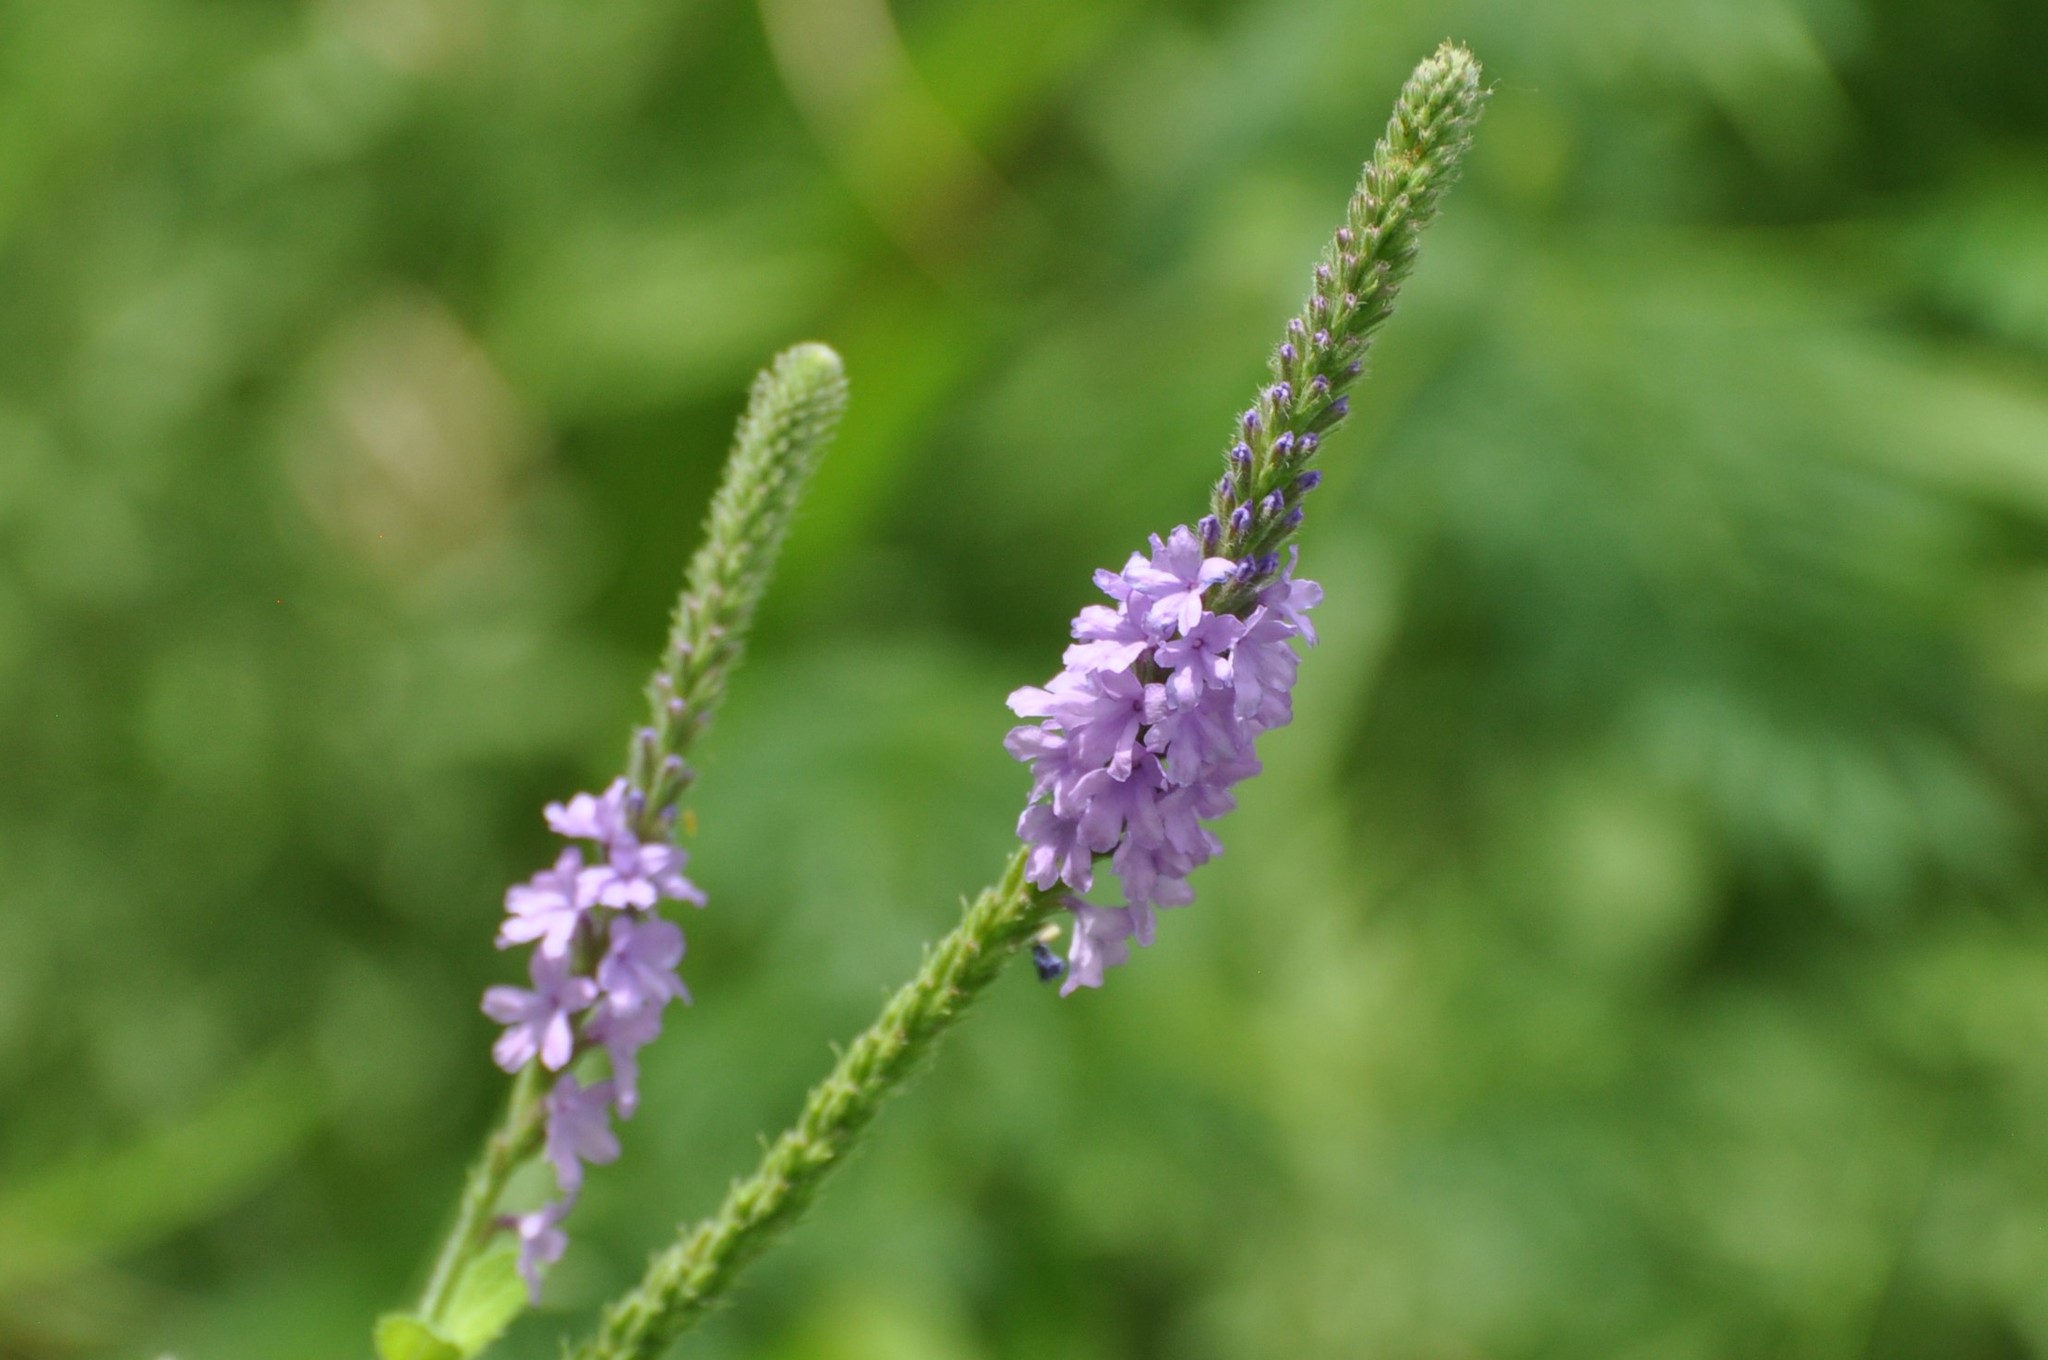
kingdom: Animalia
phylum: Arthropoda
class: Insecta
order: Lepidoptera
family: Pieridae
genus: Pontia
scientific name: Pontia protodice
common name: Checkered white
